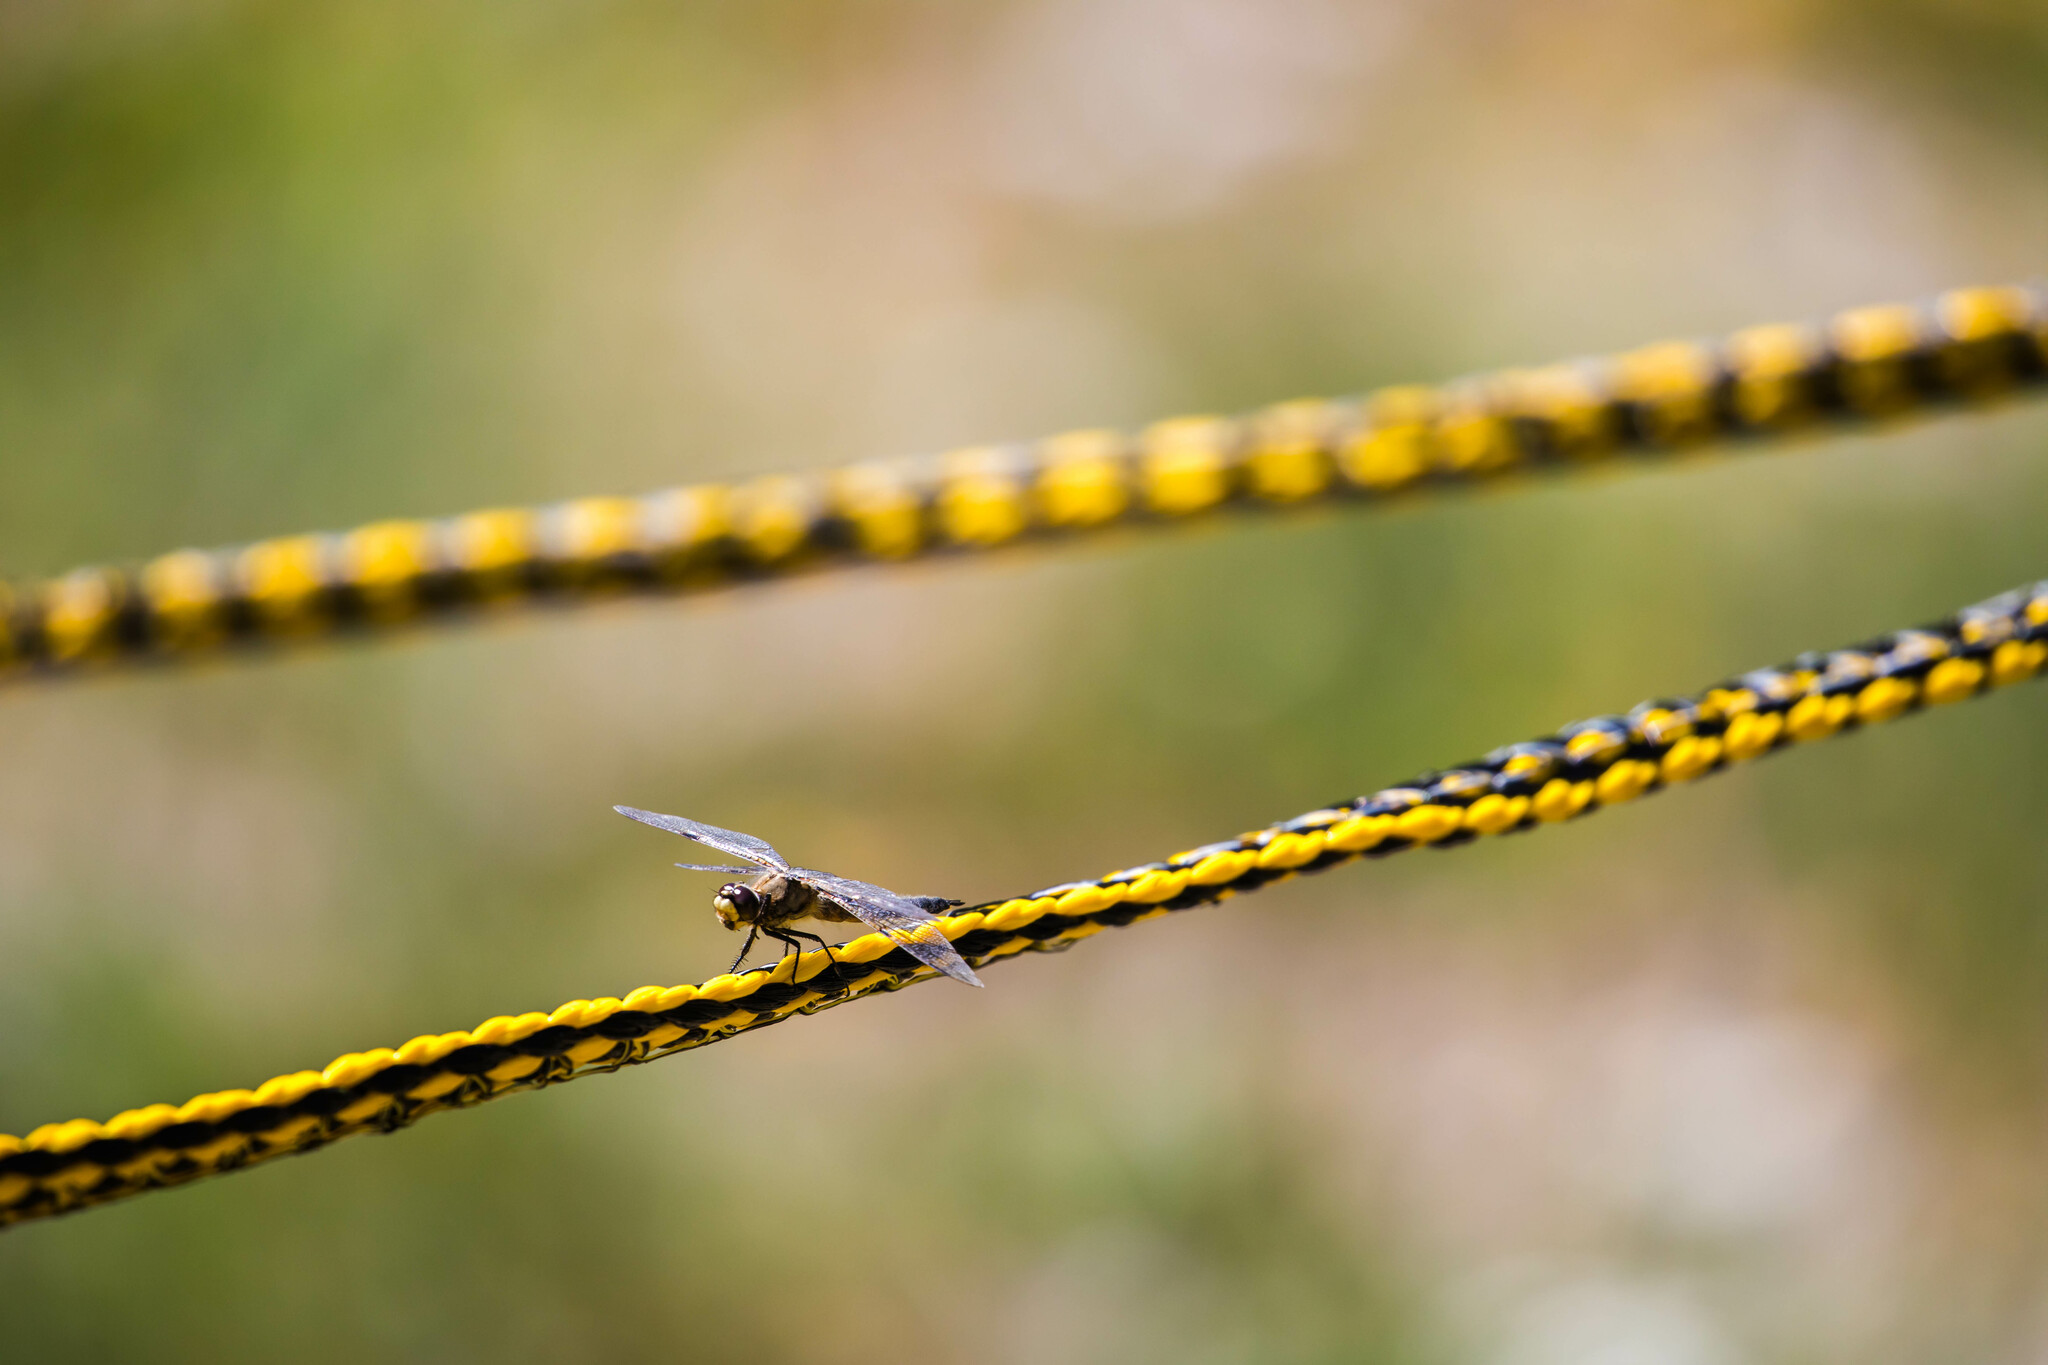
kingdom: Animalia
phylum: Arthropoda
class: Insecta
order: Odonata
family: Libellulidae
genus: Libellula
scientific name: Libellula quadrimaculata
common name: Four-spotted chaser
